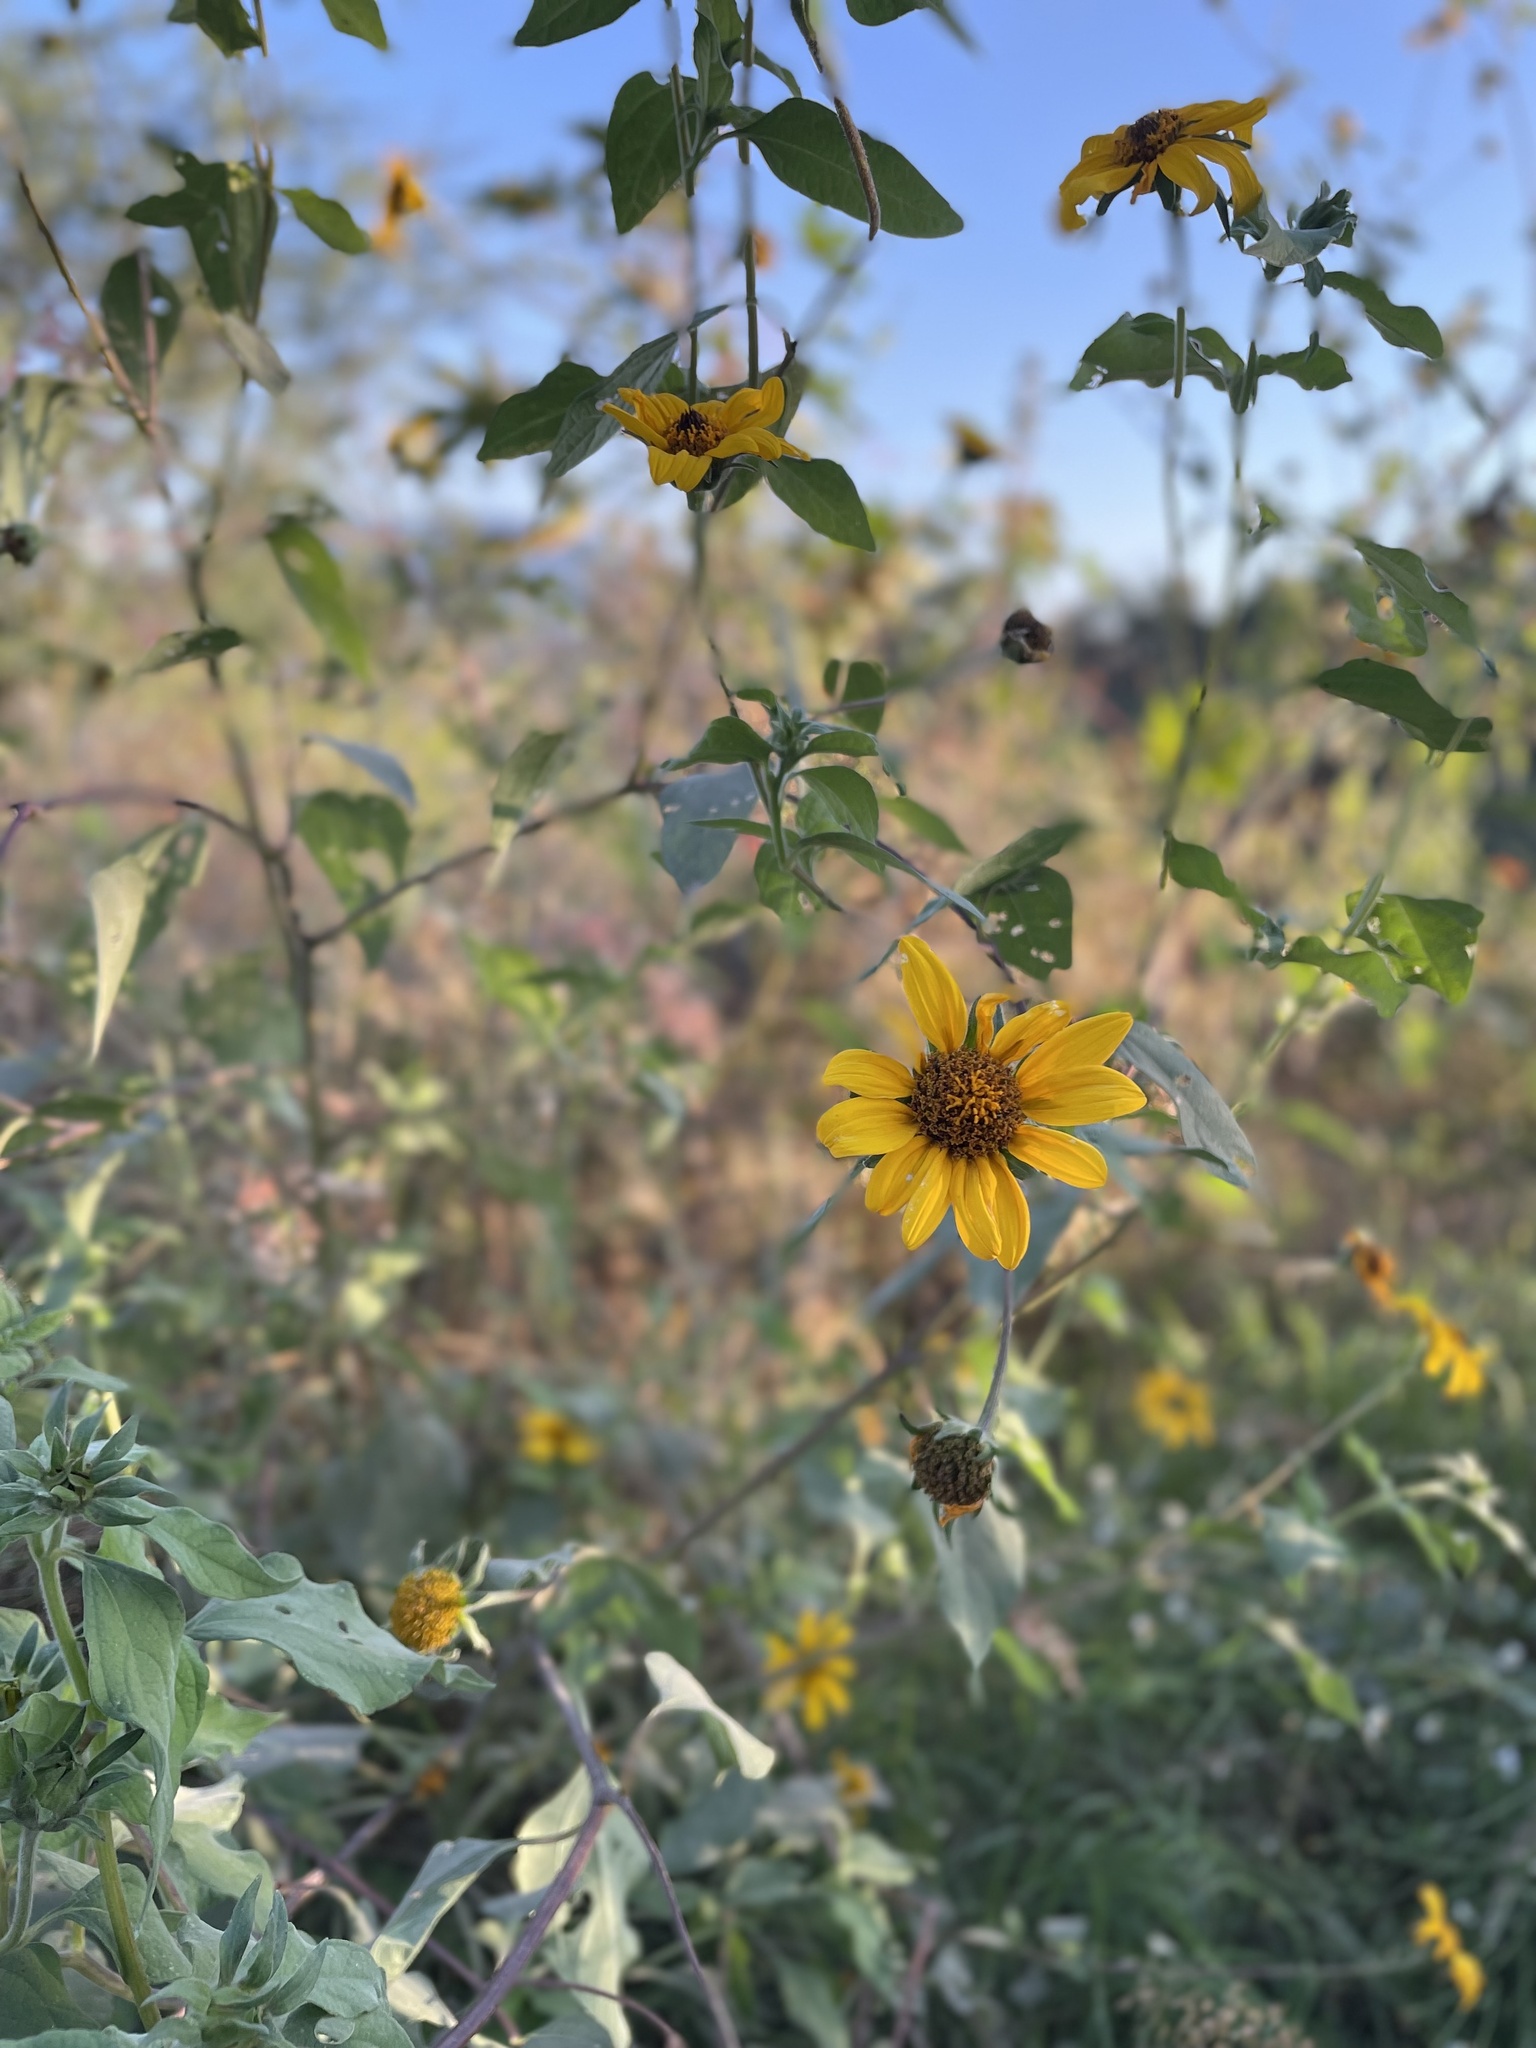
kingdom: Plantae
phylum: Tracheophyta
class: Magnoliopsida
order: Asterales
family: Asteraceae
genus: Tithonia
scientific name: Tithonia tubaeformis
